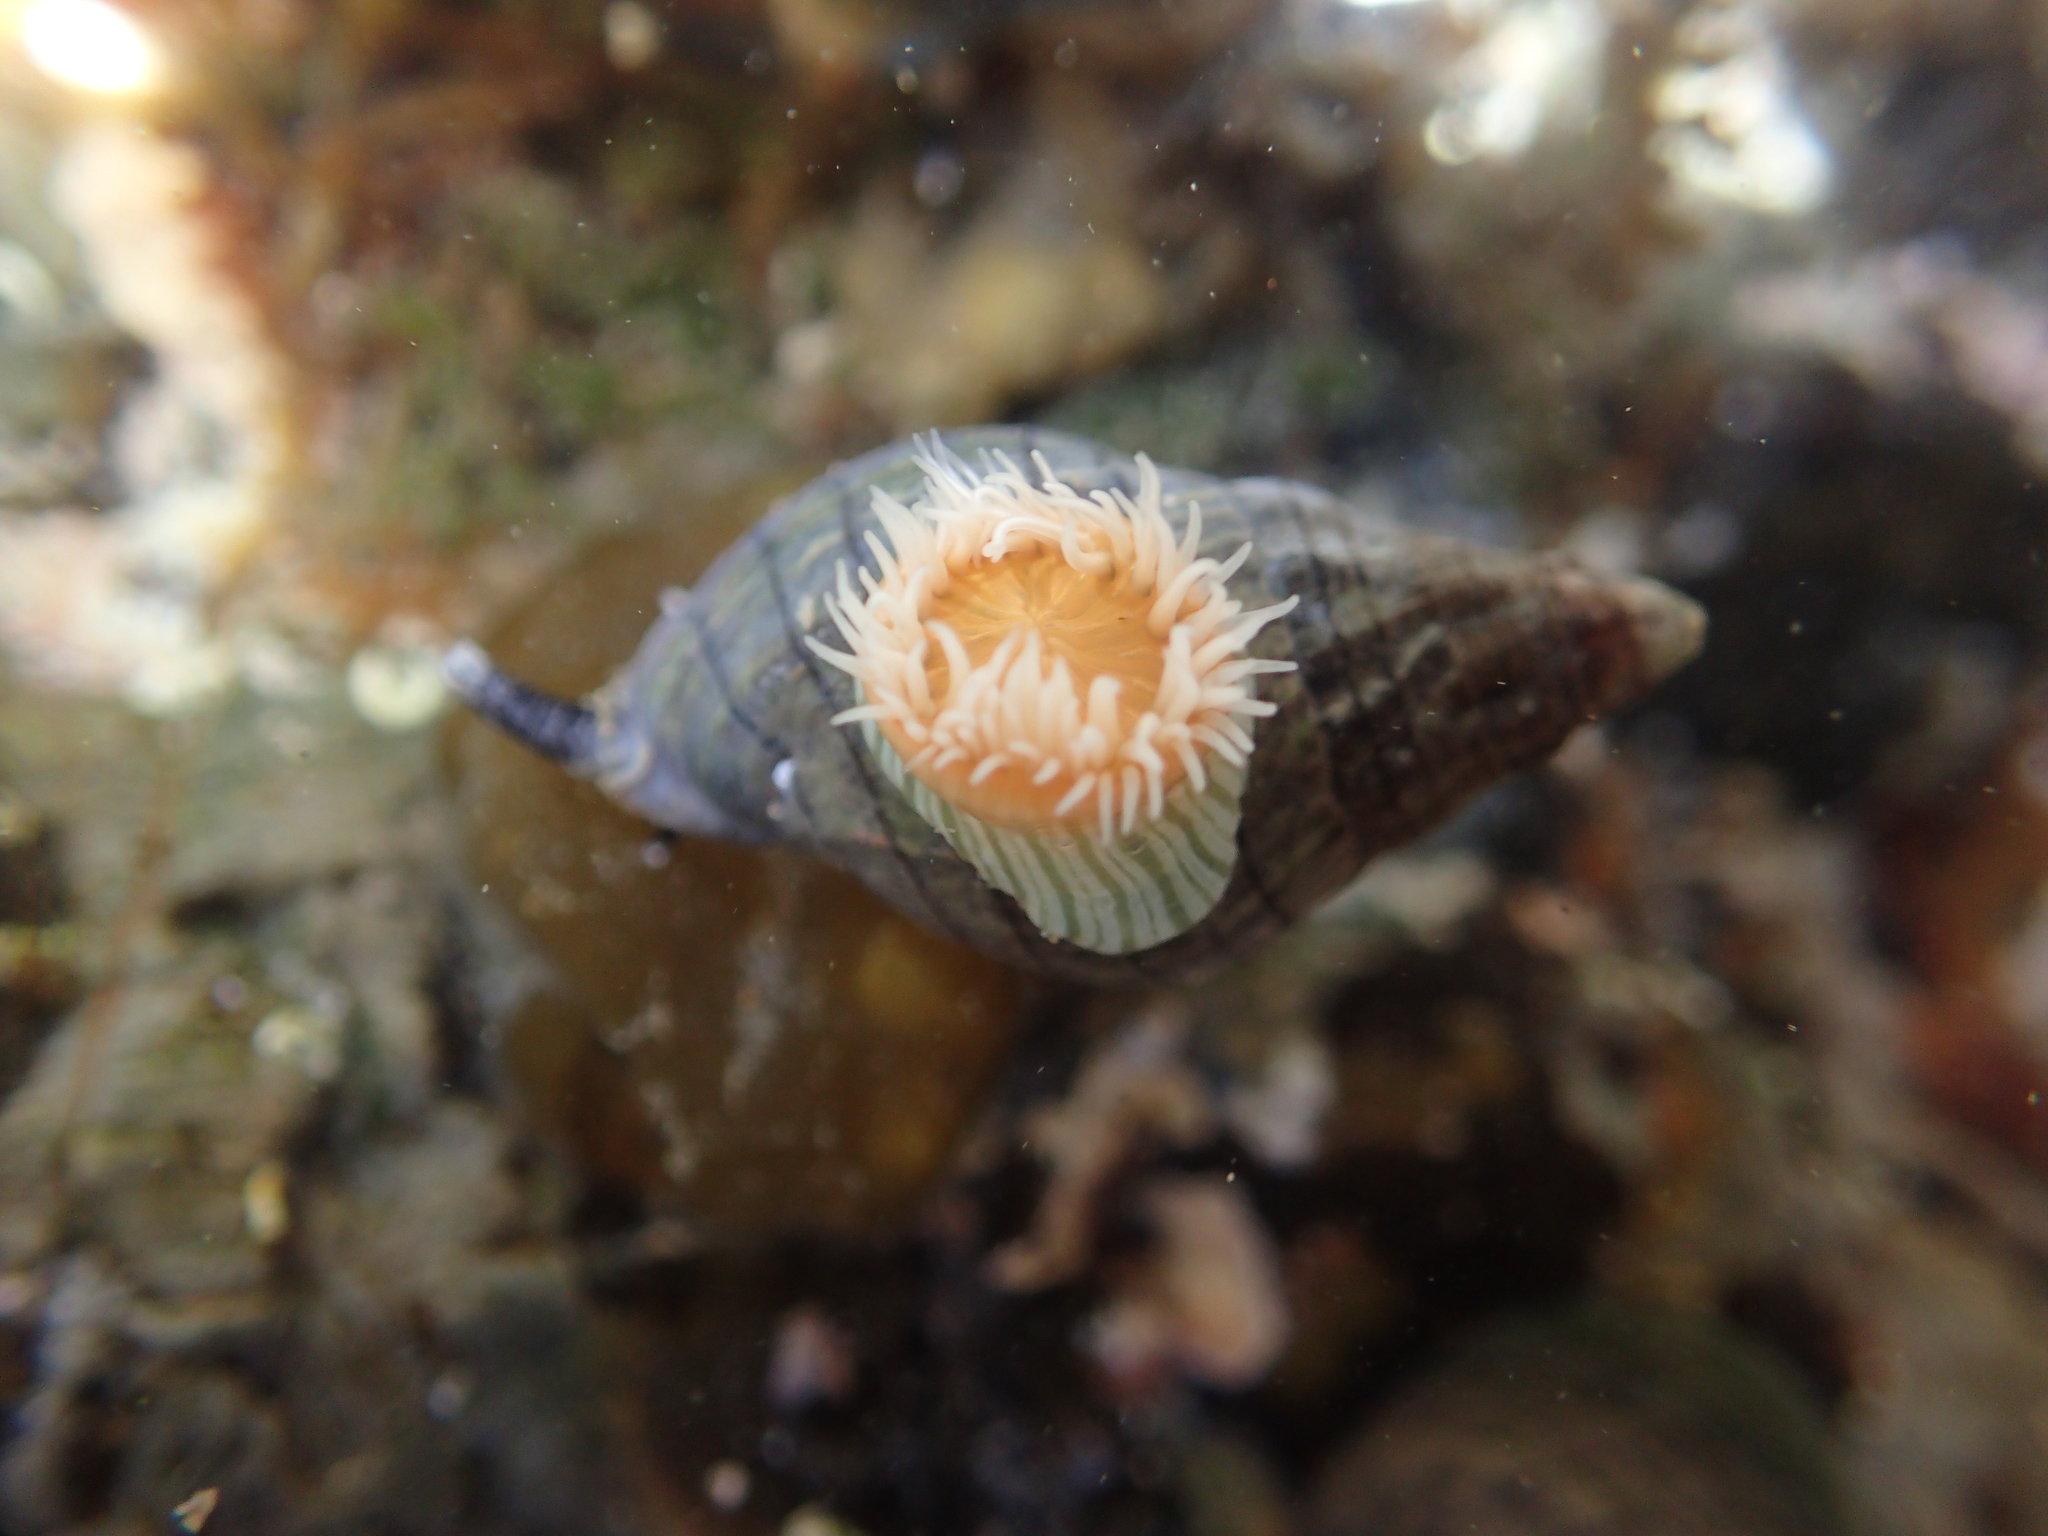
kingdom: Animalia
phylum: Cnidaria
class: Anthozoa
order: Actiniaria
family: Sagartiidae
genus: Anthothoe
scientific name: Anthothoe albocincta
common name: Orange striped anemone
